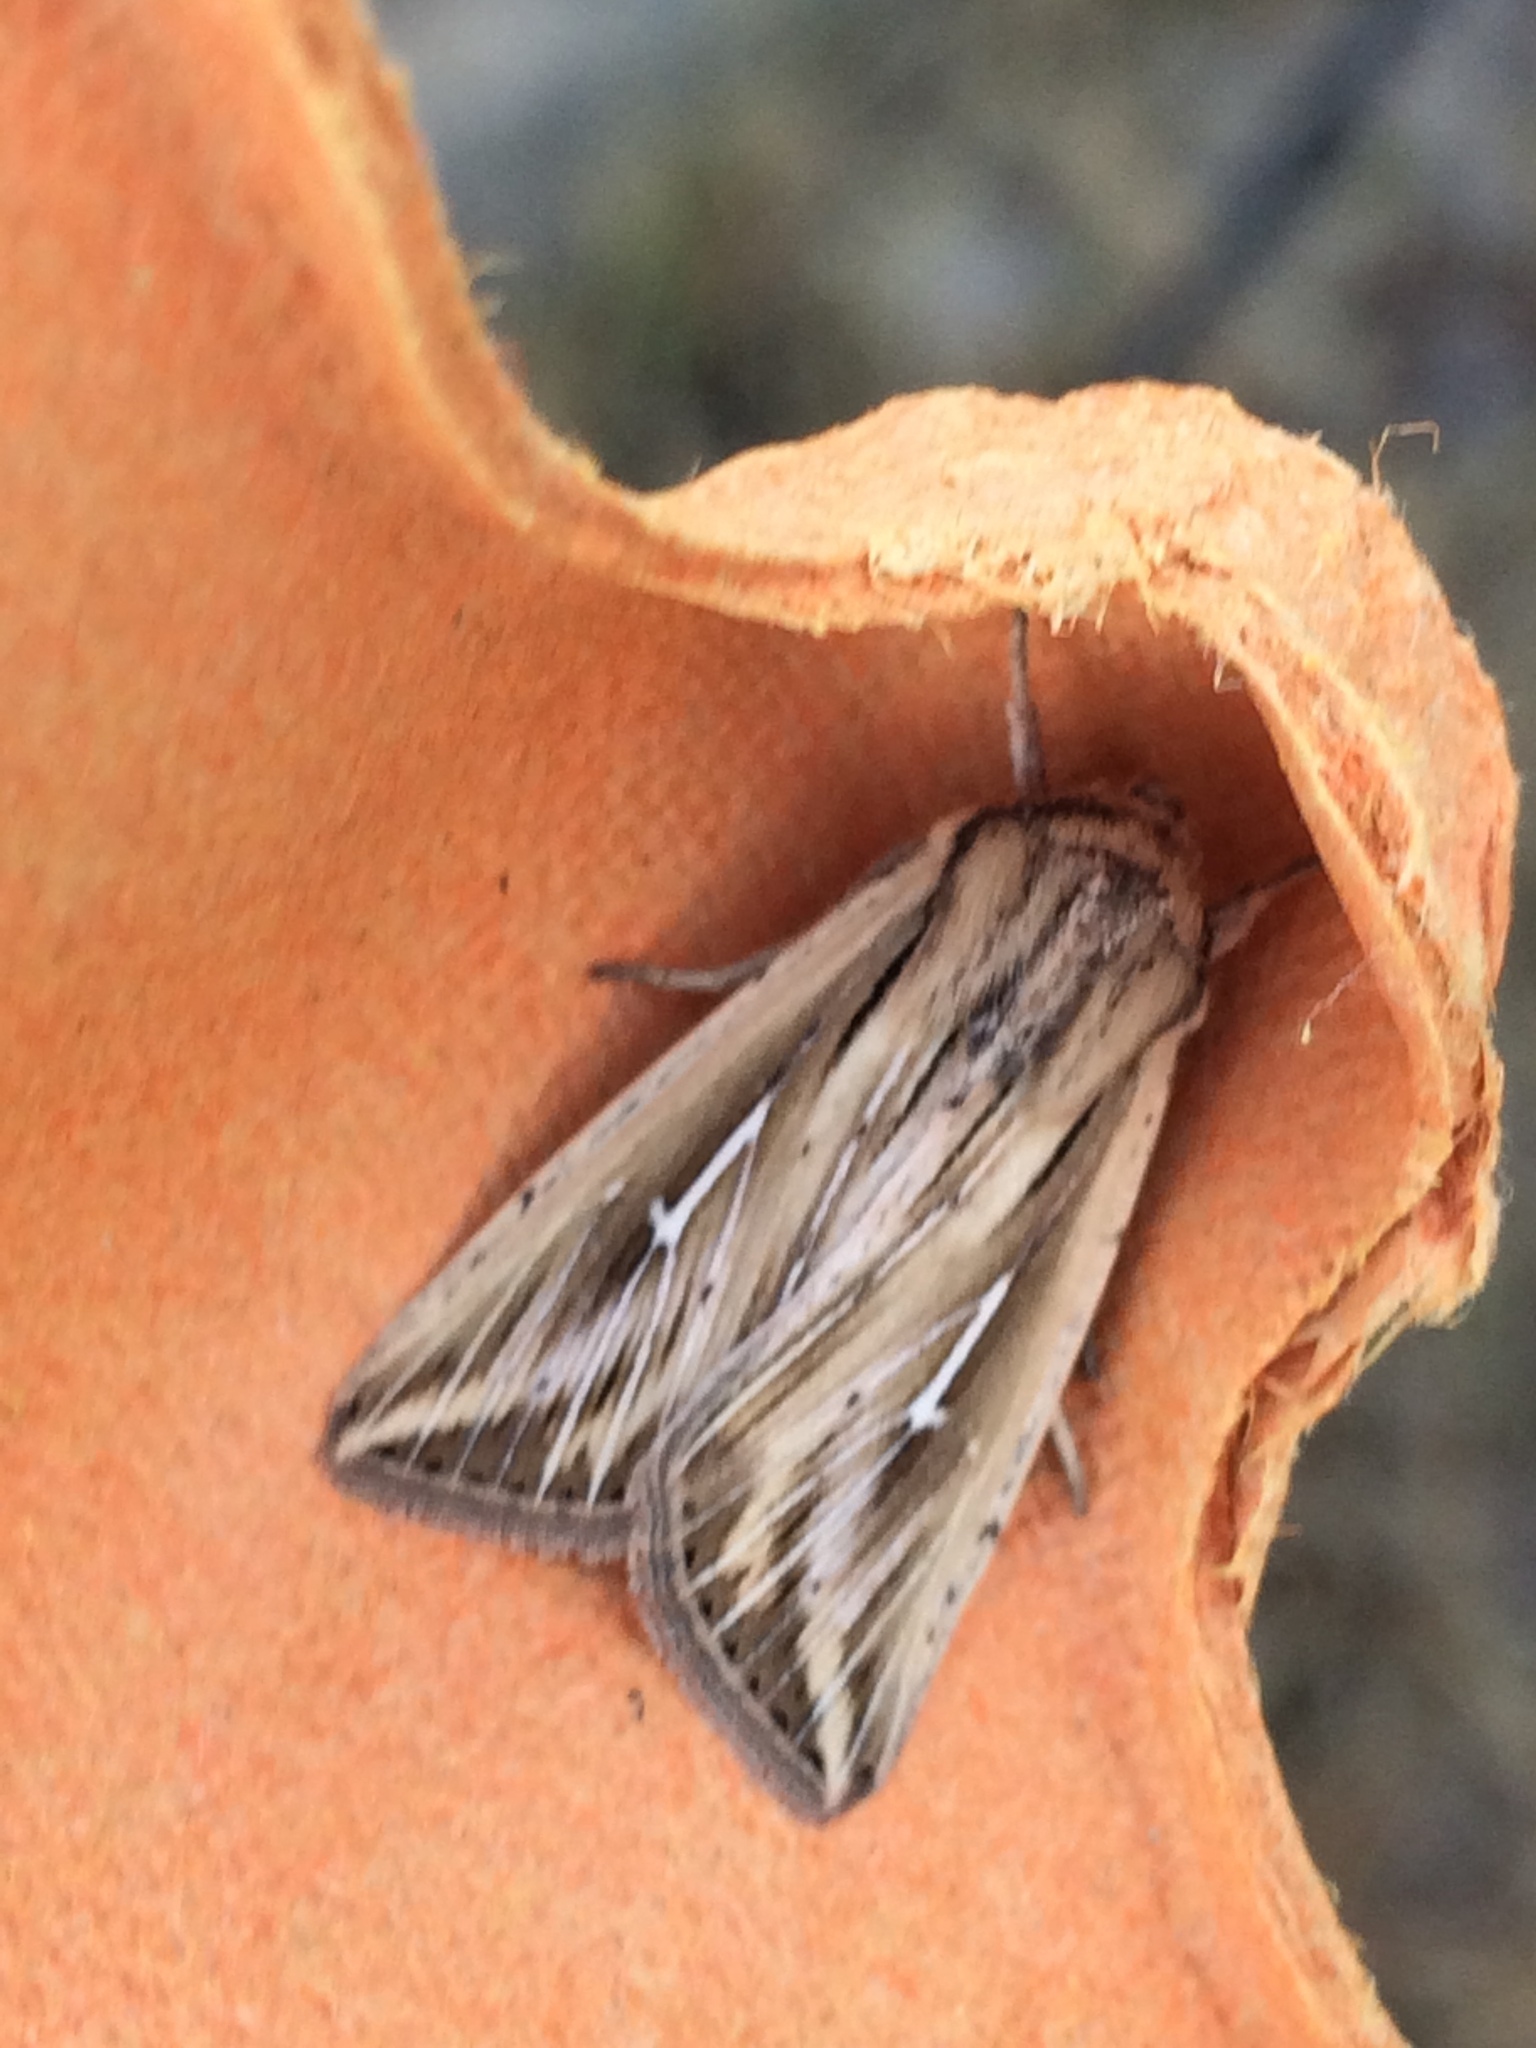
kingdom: Animalia
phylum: Arthropoda
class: Insecta
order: Lepidoptera
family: Noctuidae
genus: Mythimna
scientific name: Mythimna l-album
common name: L-album wainscot
